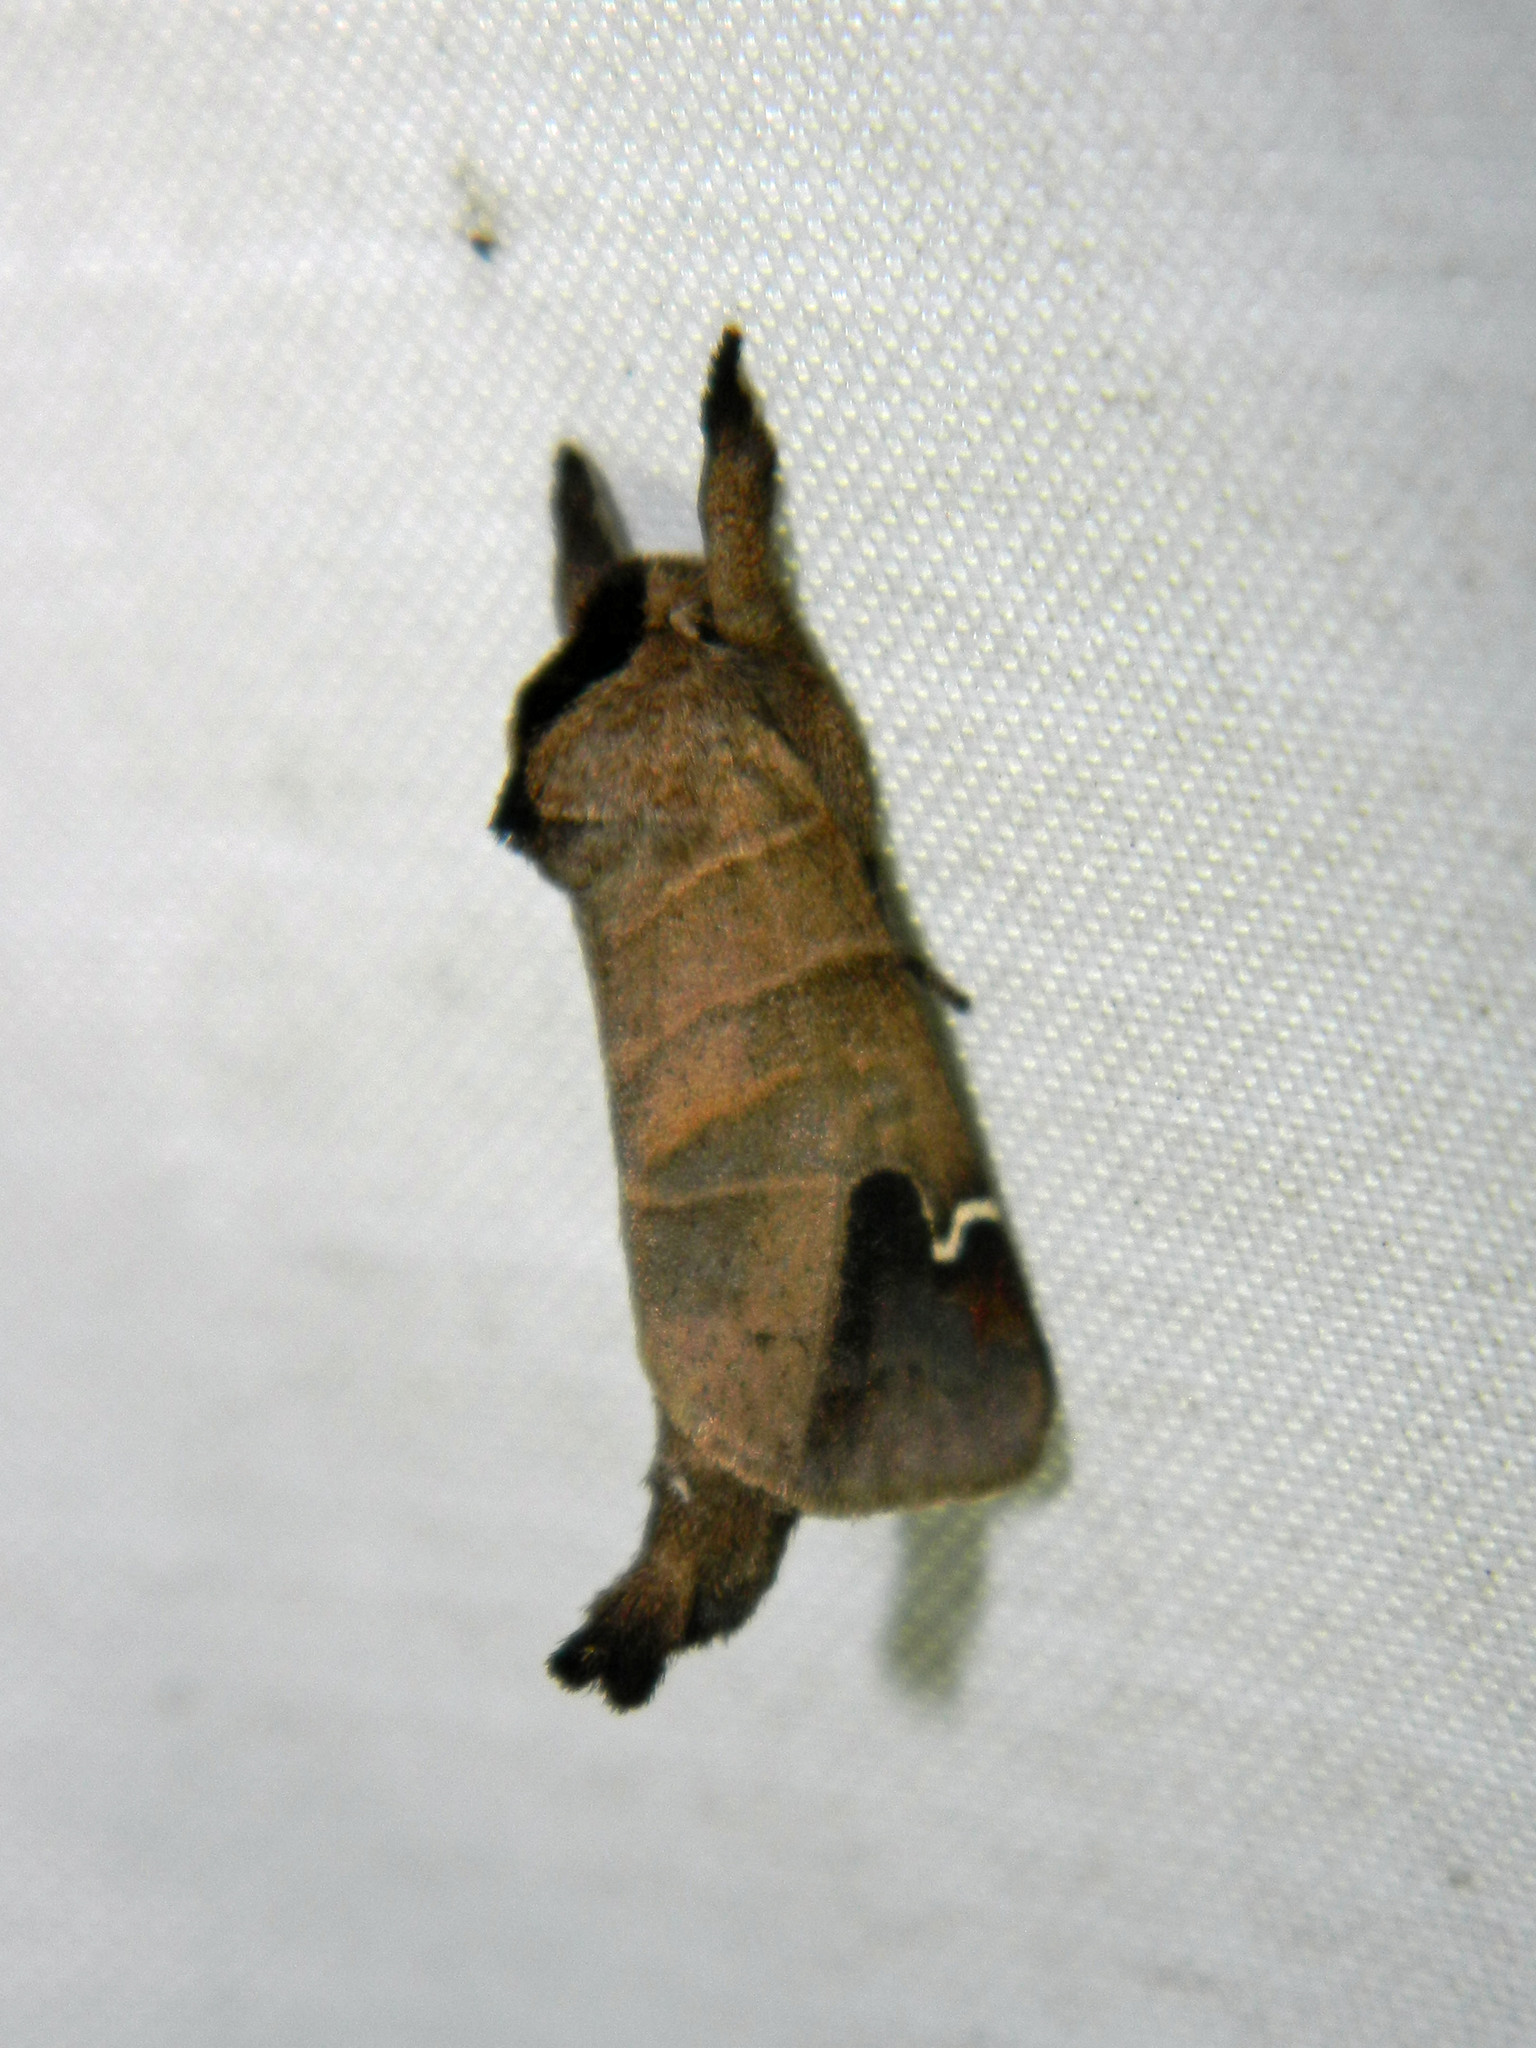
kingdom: Animalia
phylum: Arthropoda
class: Insecta
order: Lepidoptera
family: Notodontidae
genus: Clostera
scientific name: Clostera albosigma
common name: Sigmoid prominent
